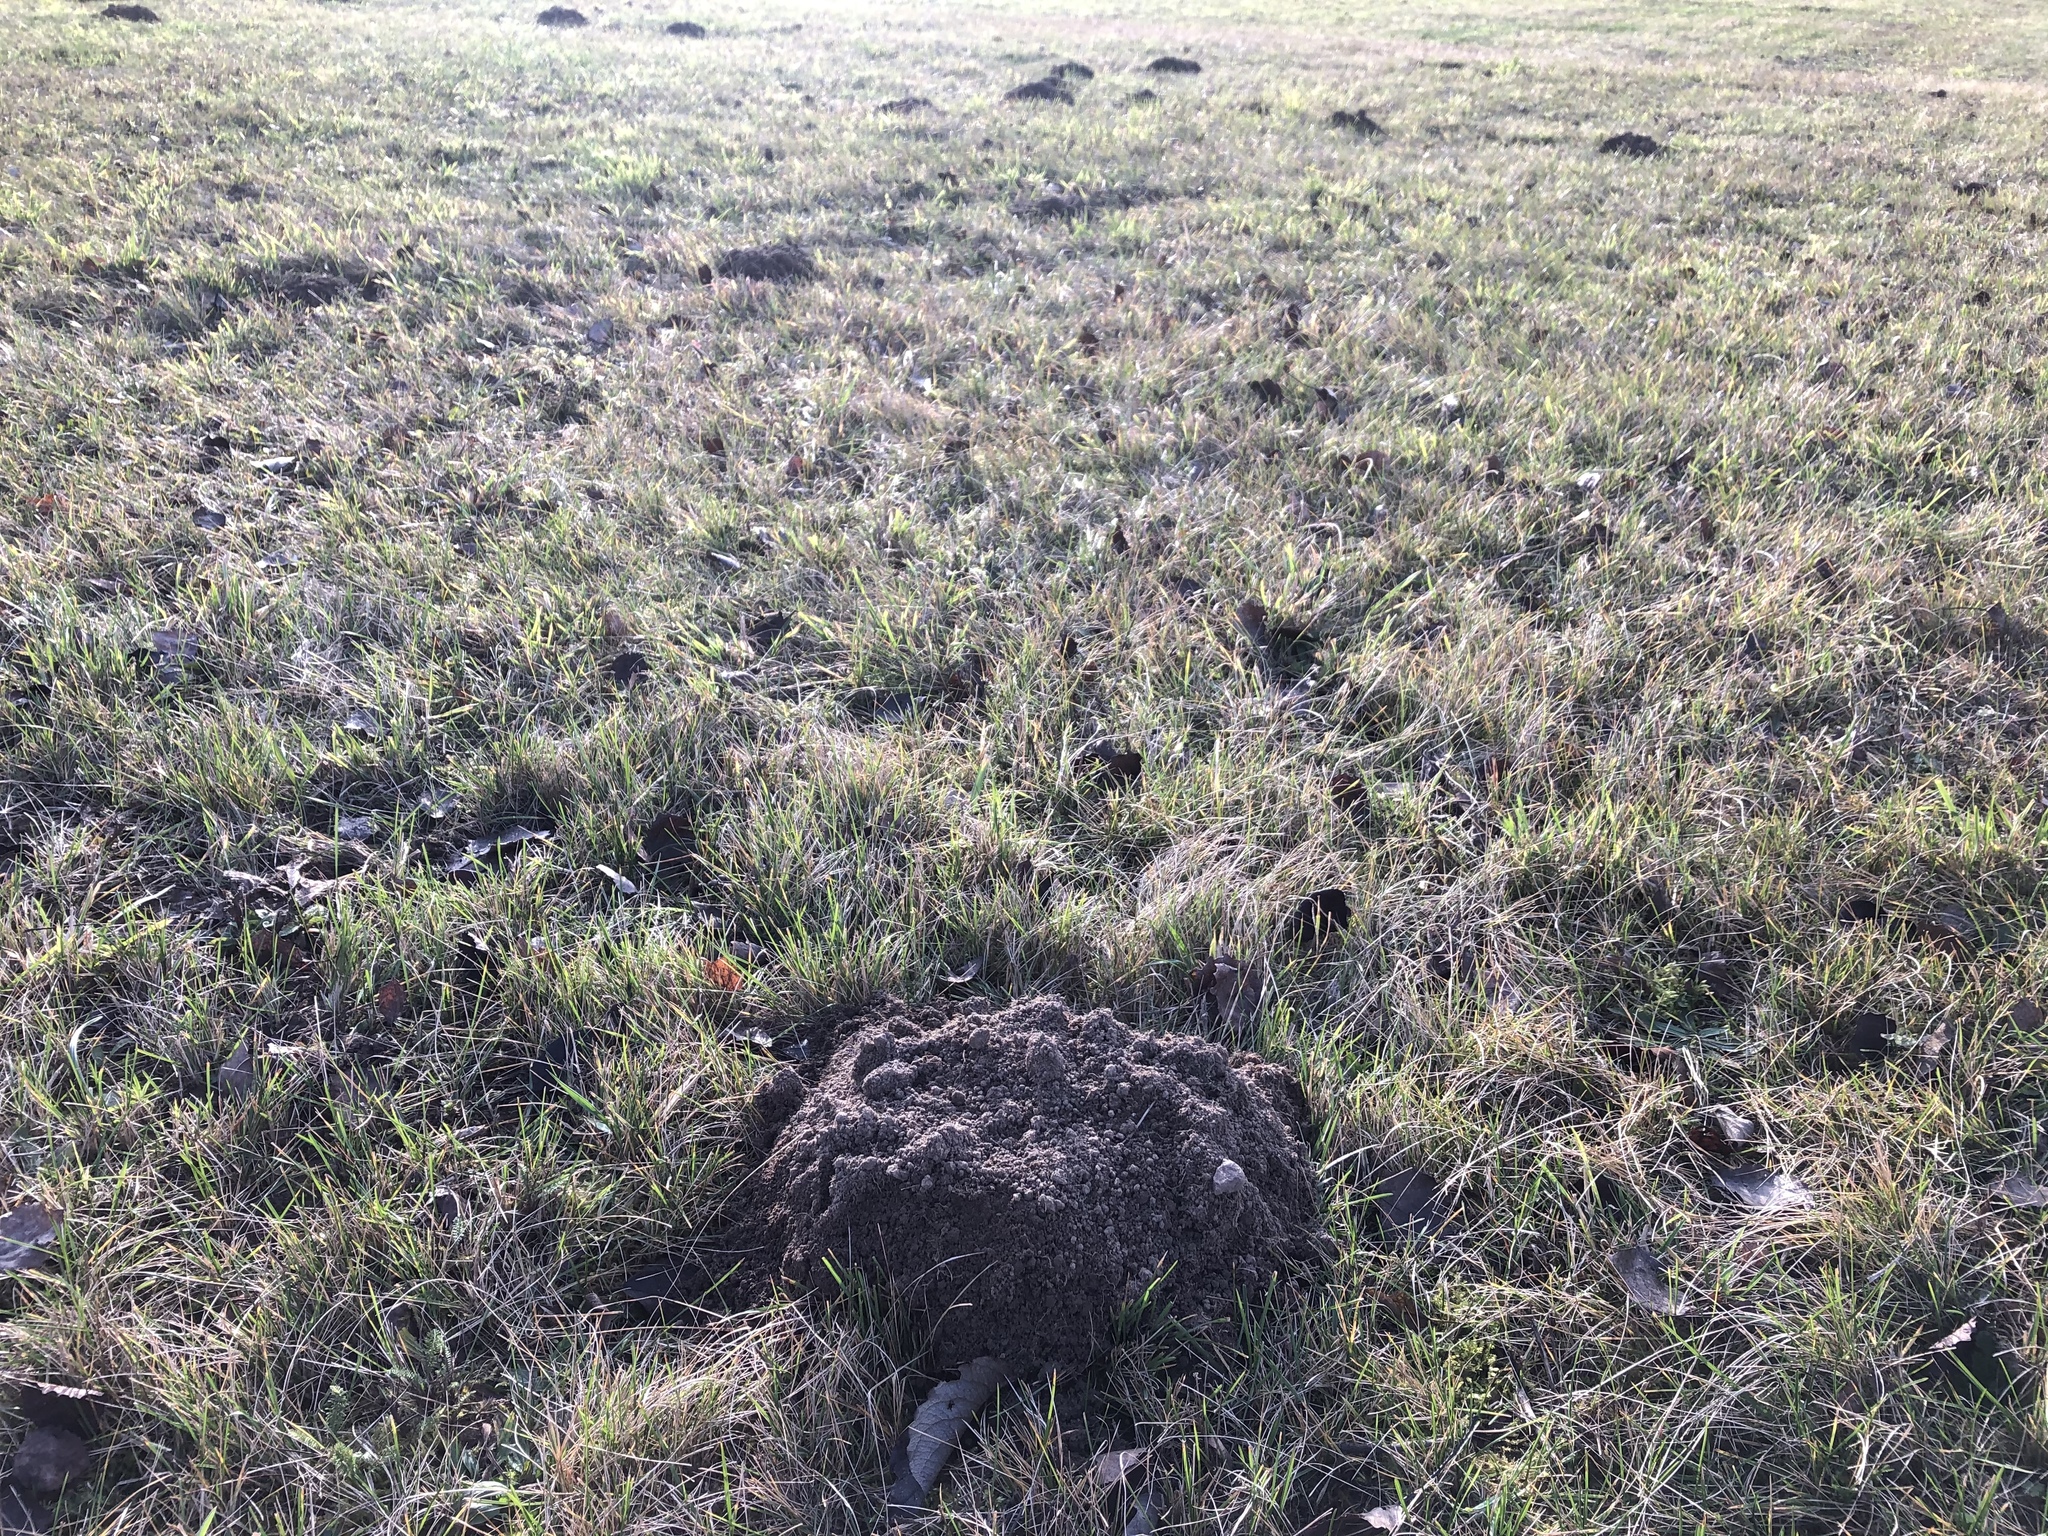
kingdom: Animalia
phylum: Chordata
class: Mammalia
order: Soricomorpha
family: Talpidae
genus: Talpa
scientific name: Talpa europaea
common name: European mole
